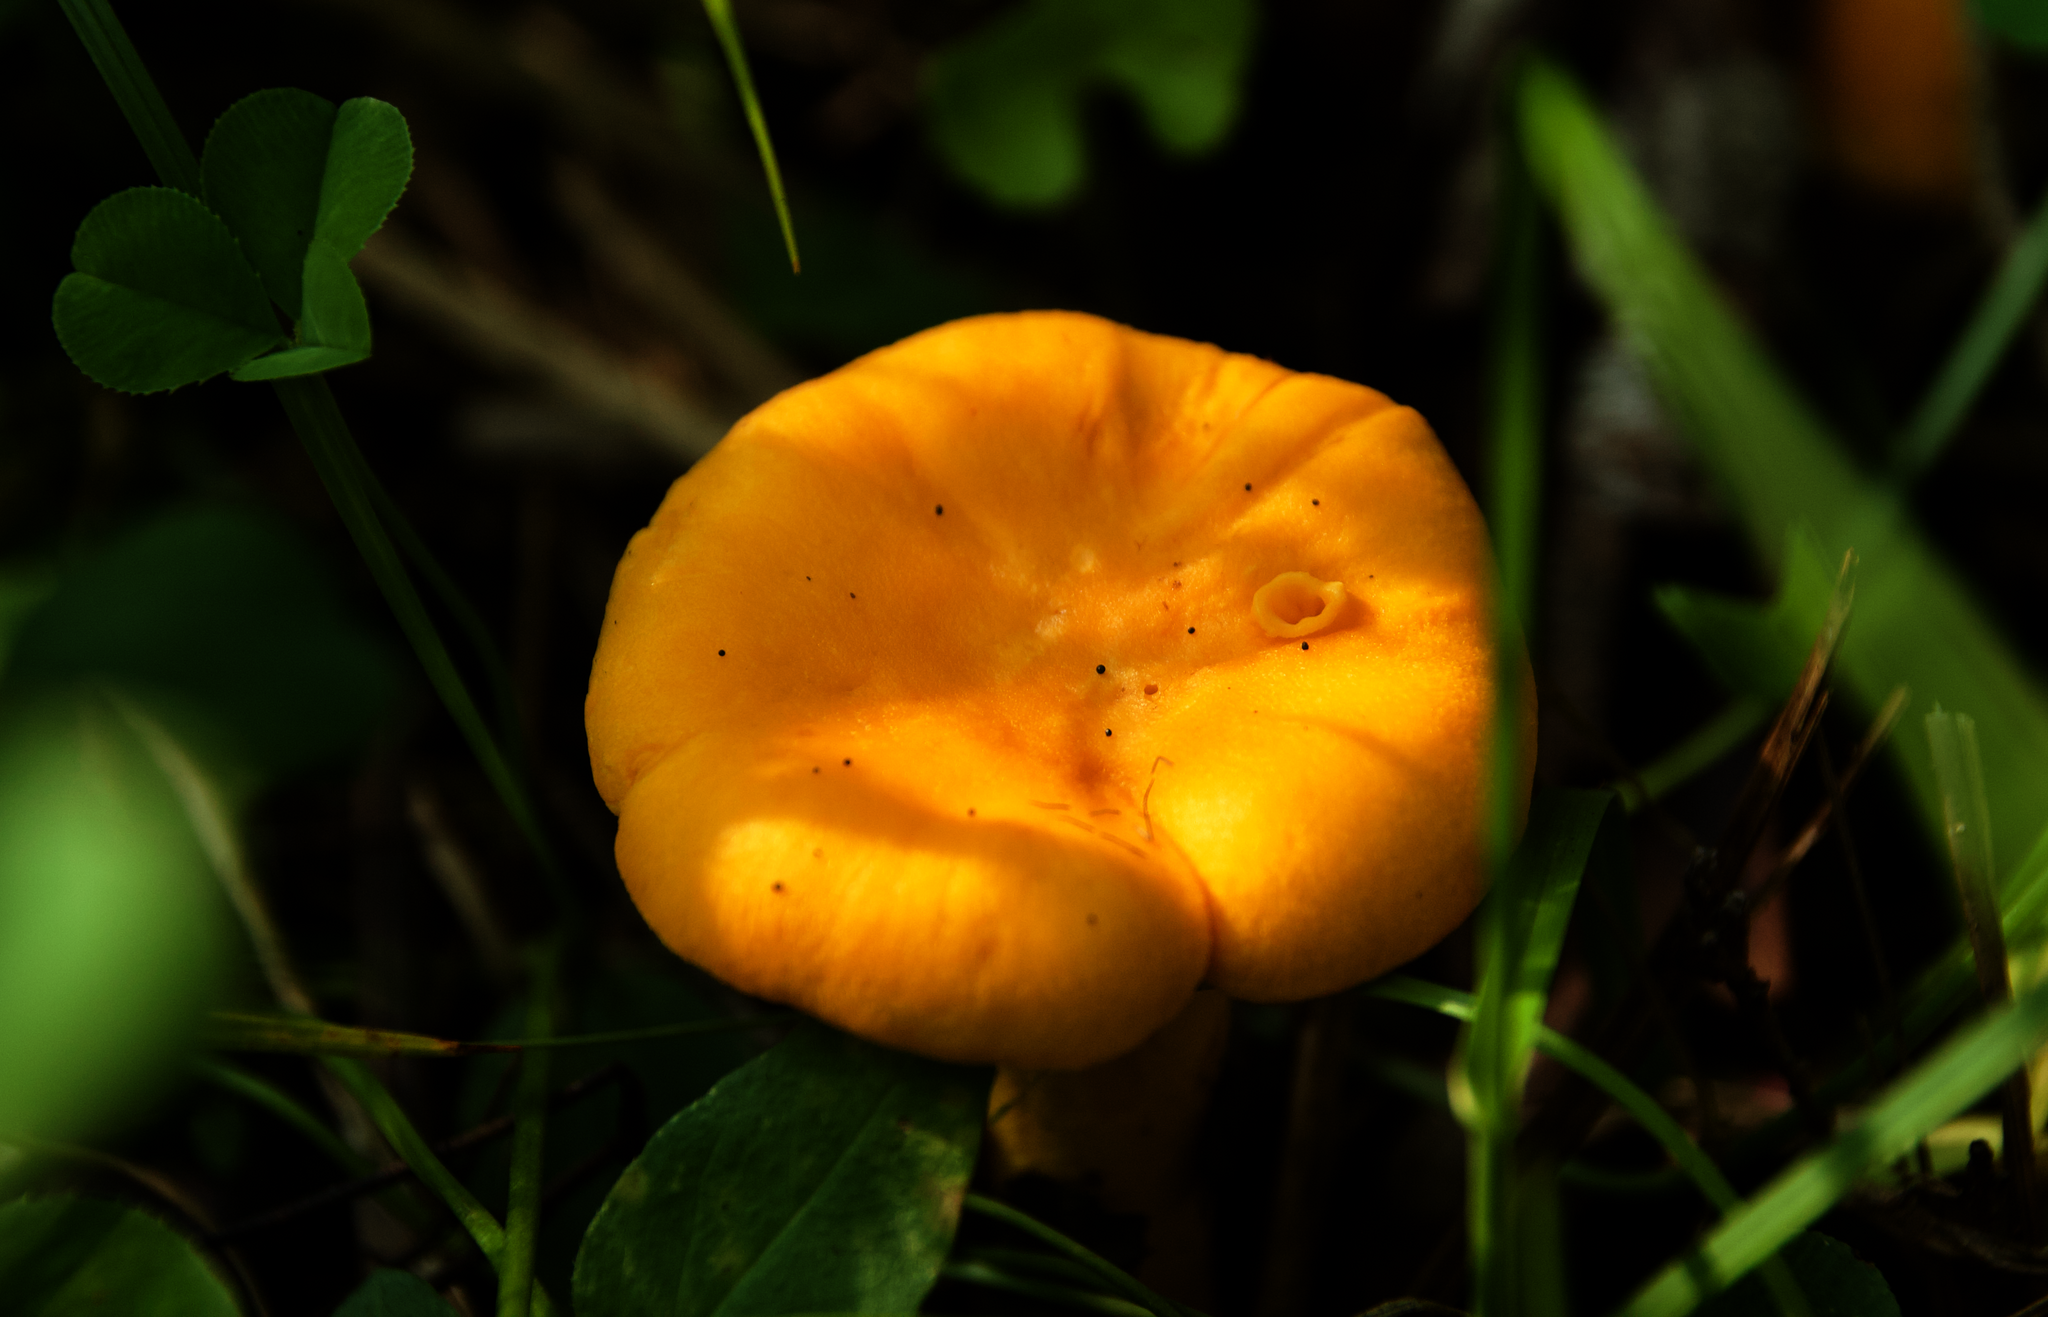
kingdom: Fungi
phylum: Basidiomycota
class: Agaricomycetes
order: Cantharellales
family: Hydnaceae
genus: Cantharellus
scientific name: Cantharellus
